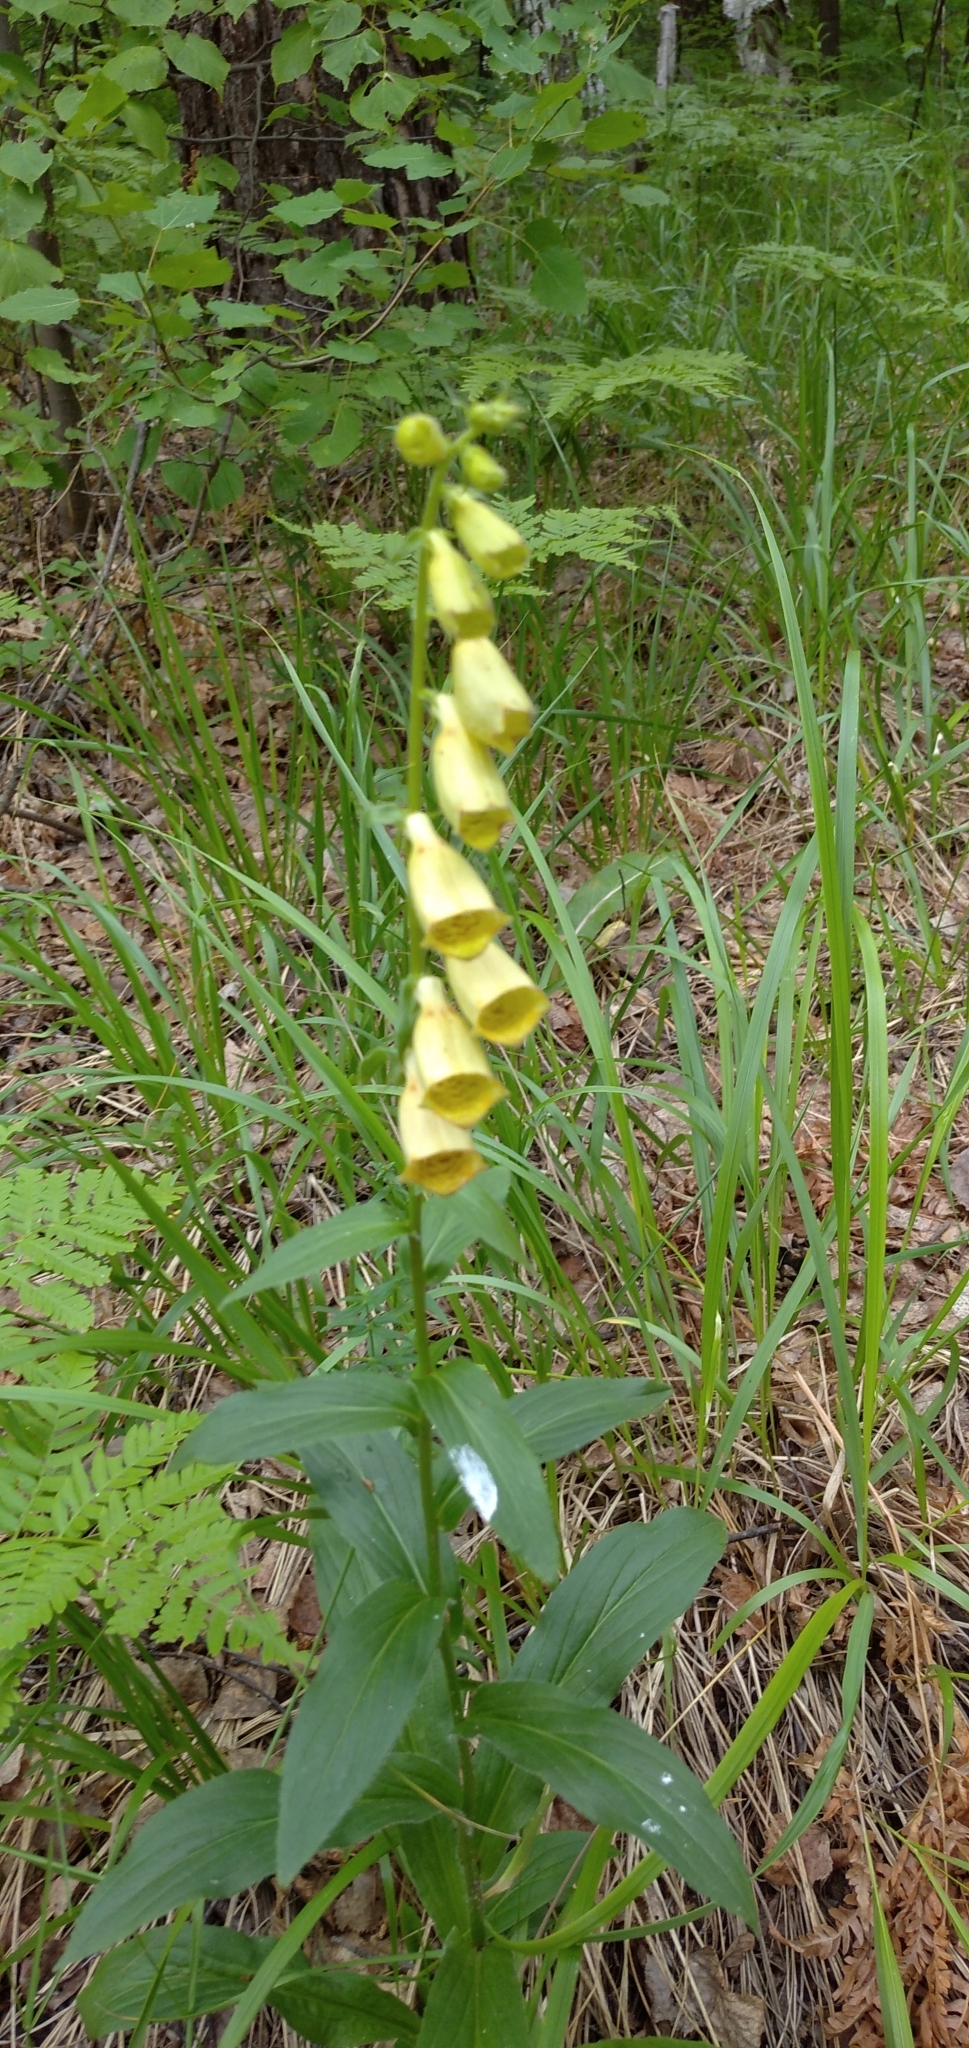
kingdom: Plantae
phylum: Tracheophyta
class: Magnoliopsida
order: Lamiales
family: Plantaginaceae
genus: Digitalis
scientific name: Digitalis grandiflora
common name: Yellow foxglove
